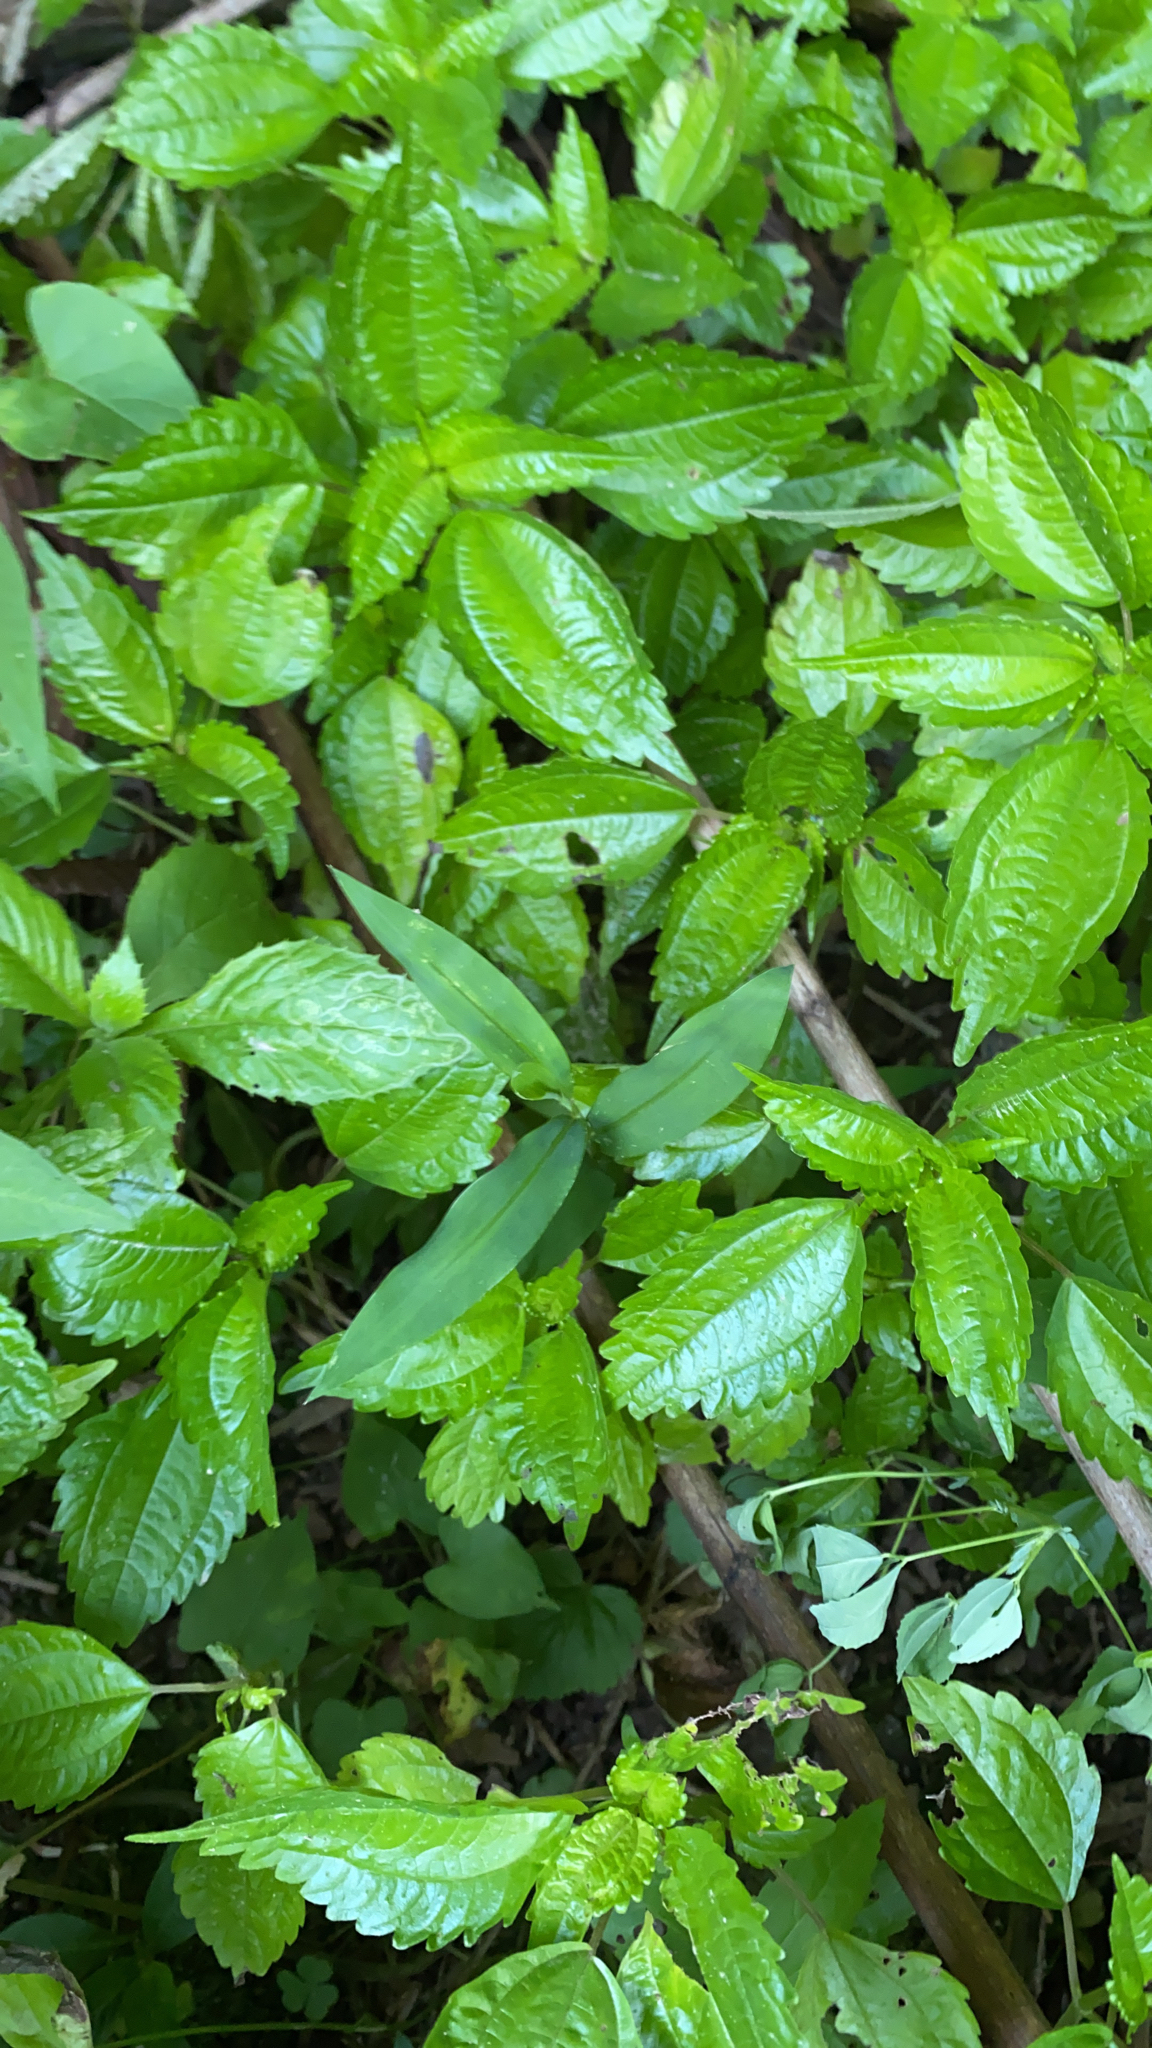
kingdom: Plantae
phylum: Tracheophyta
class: Magnoliopsida
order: Rosales
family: Urticaceae
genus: Pilea
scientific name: Pilea pumila
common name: Clearweed
